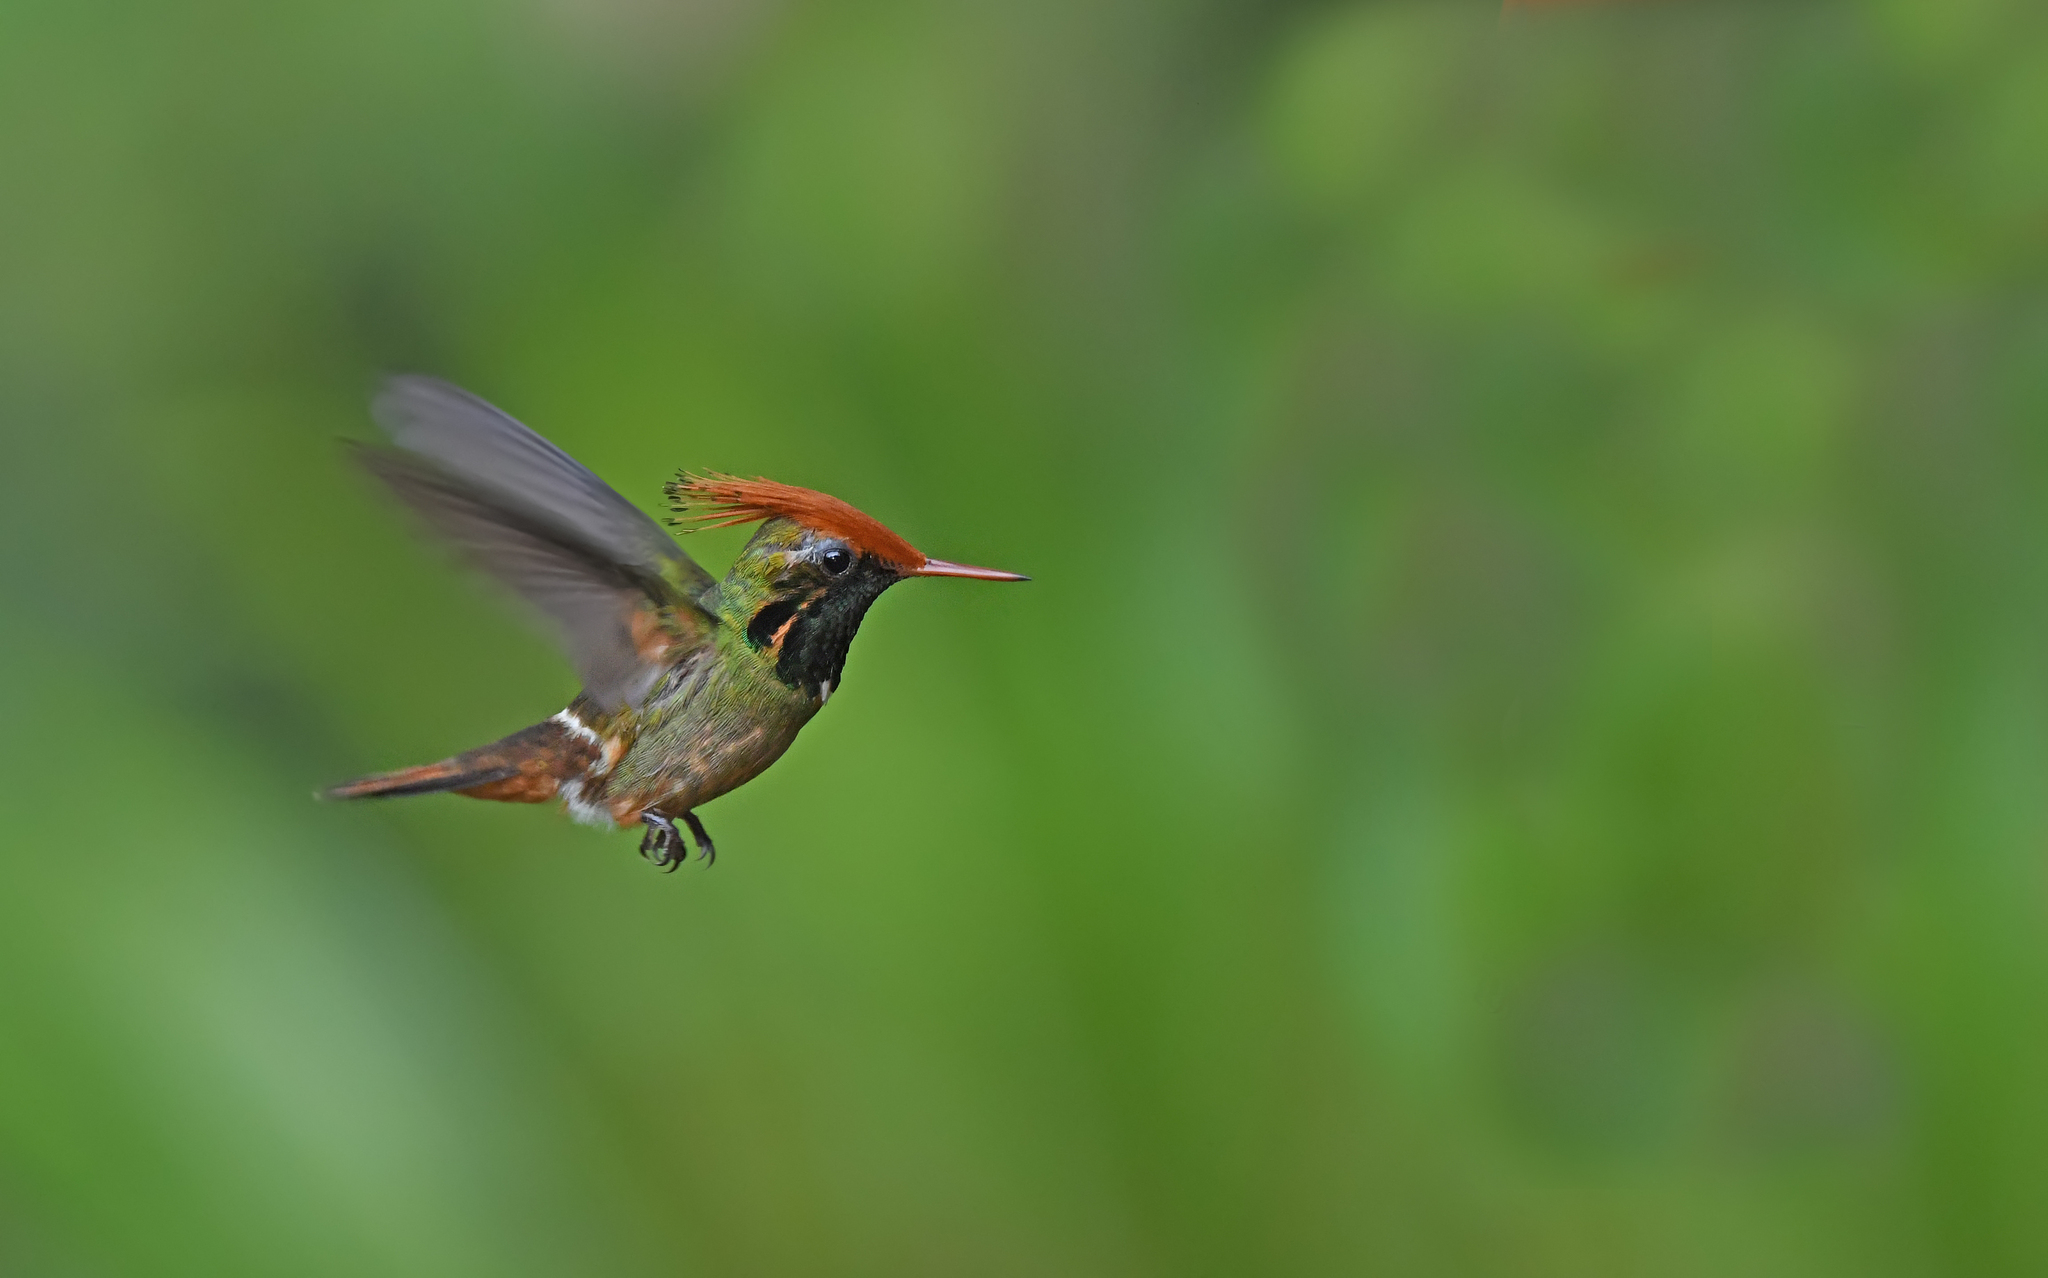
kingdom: Animalia
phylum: Chordata
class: Aves
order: Apodiformes
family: Trochilidae
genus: Lophornis
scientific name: Lophornis delattrei
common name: Rufous-crested coquette
